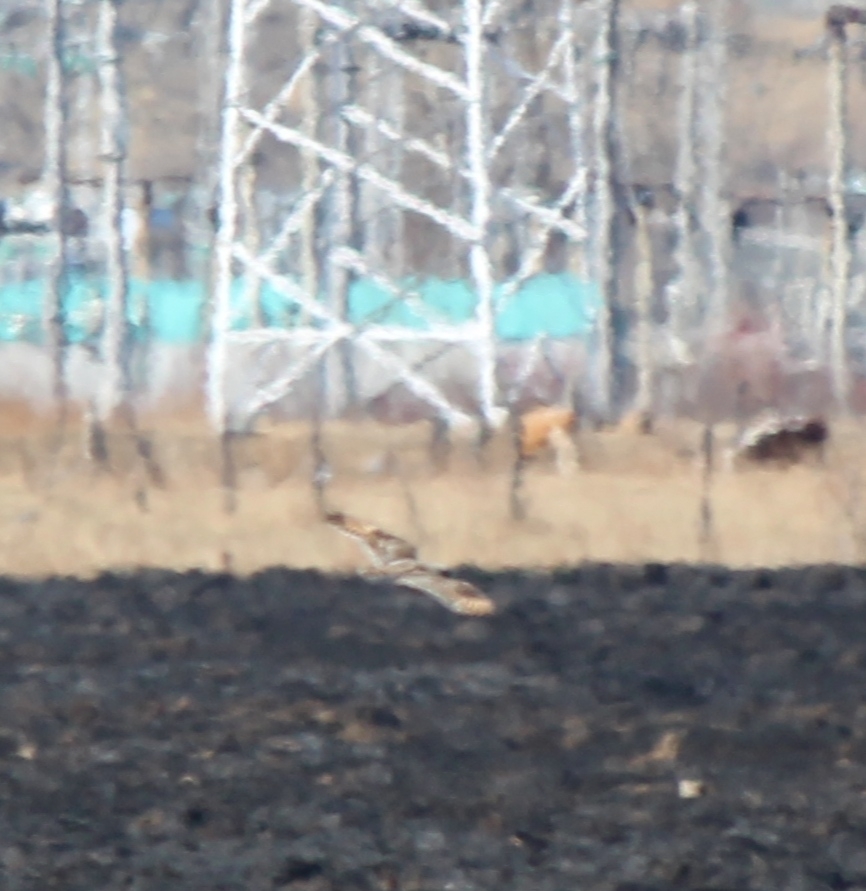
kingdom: Animalia
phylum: Chordata
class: Aves
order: Strigiformes
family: Strigidae
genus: Asio
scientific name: Asio flammeus
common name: Short-eared owl
